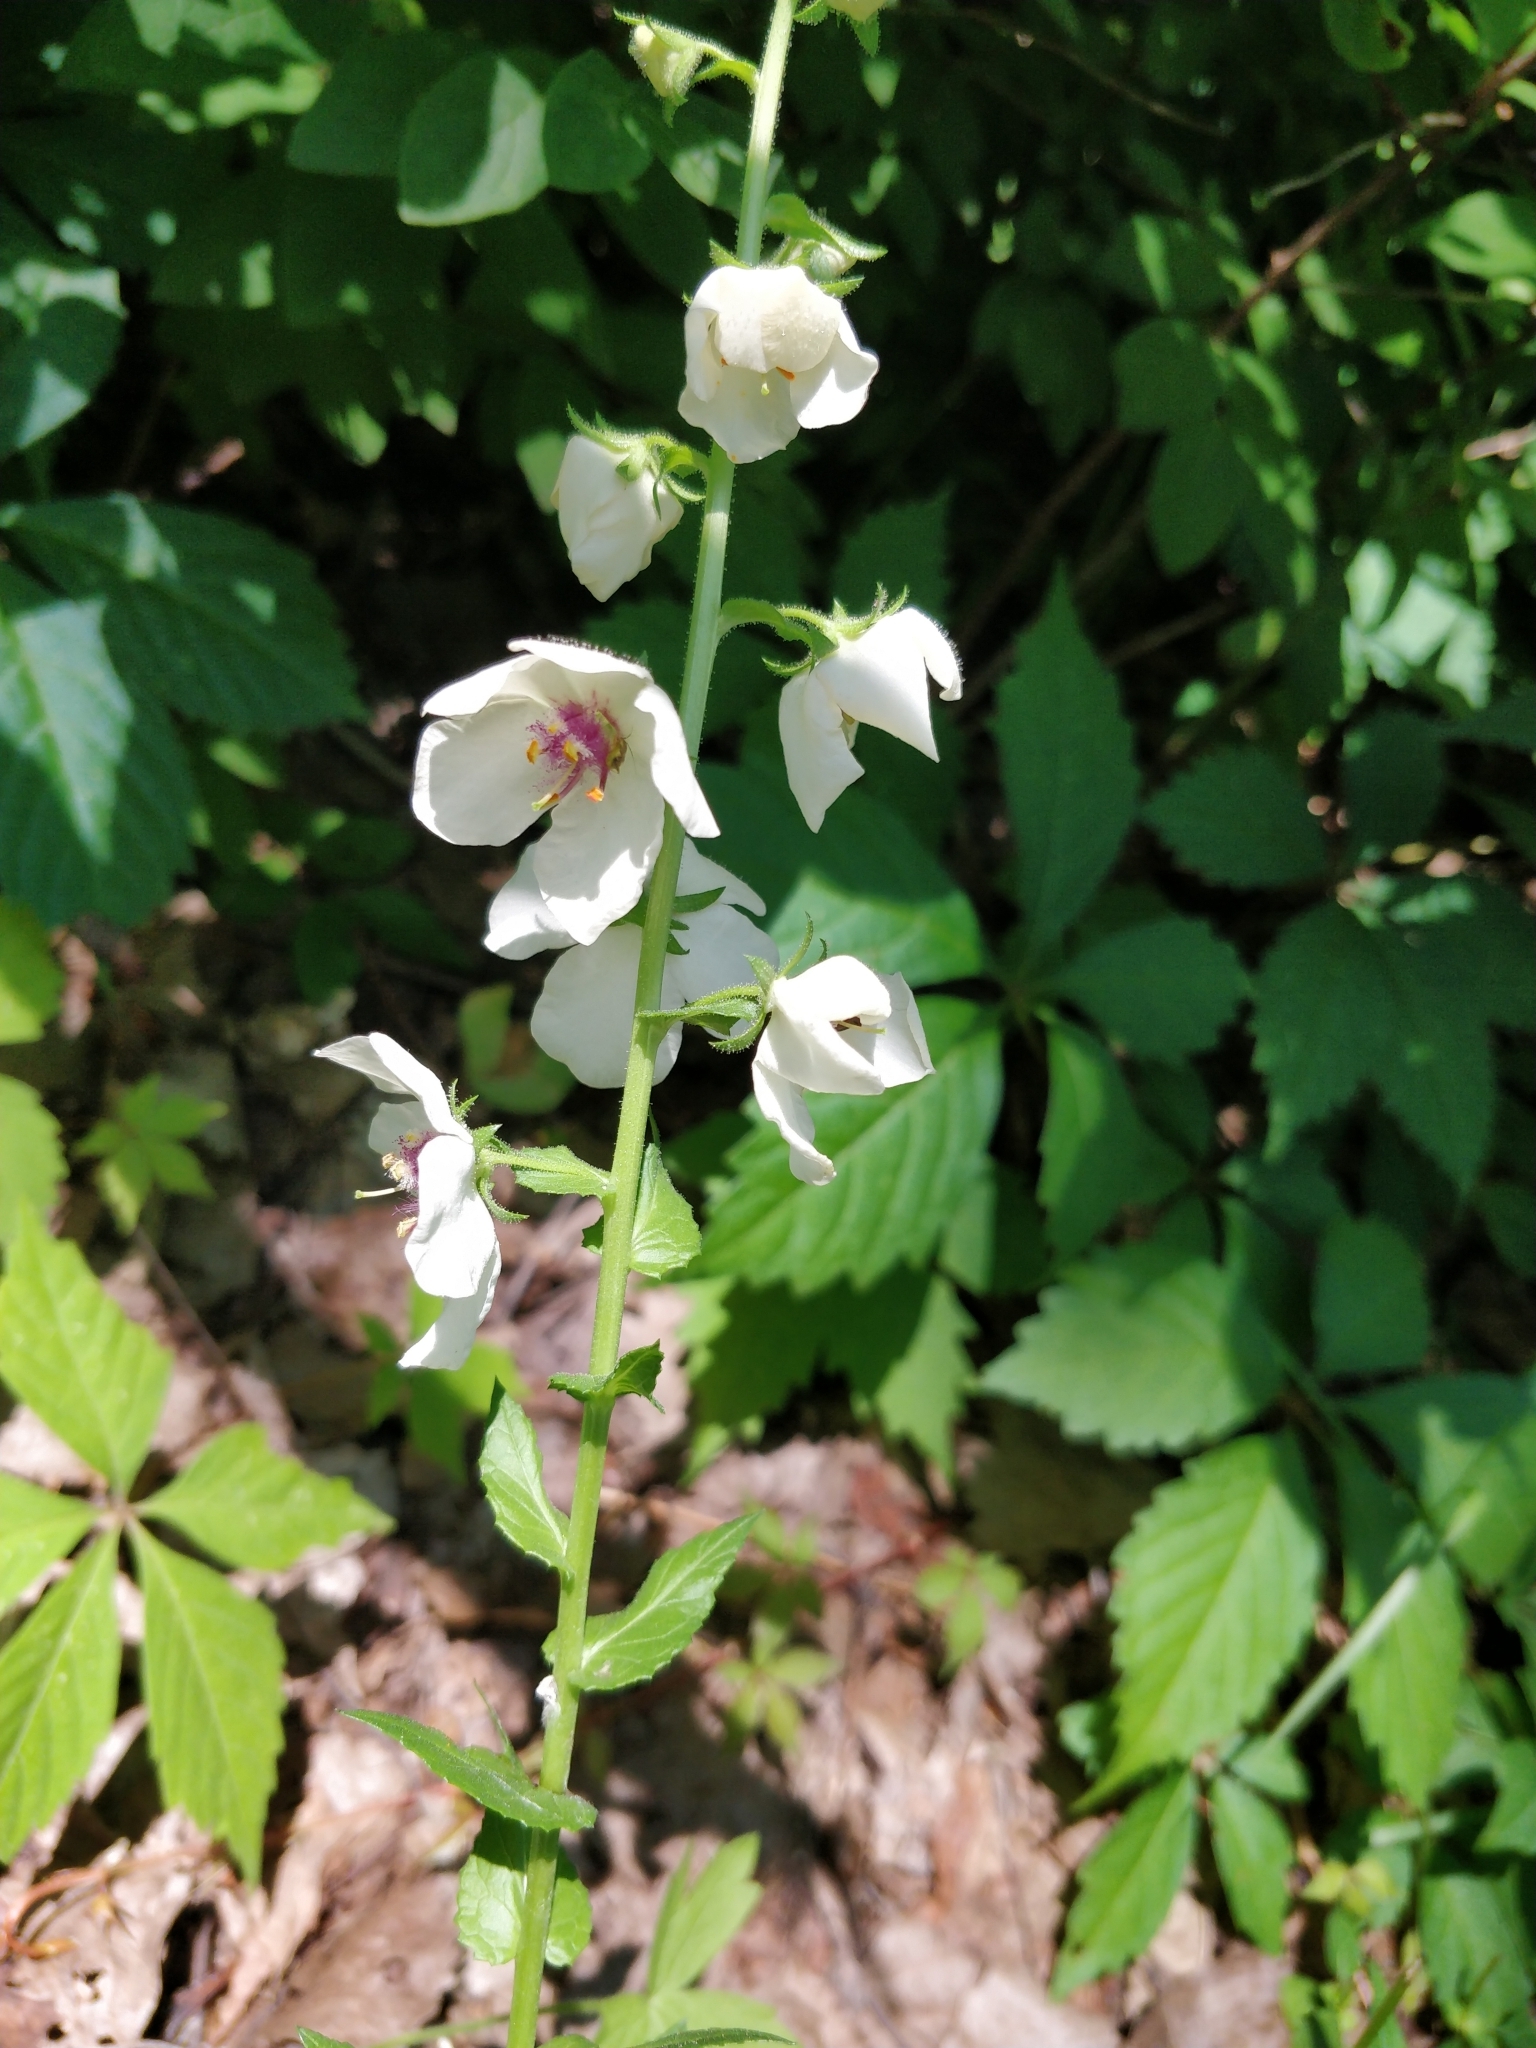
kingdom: Plantae
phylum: Tracheophyta
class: Magnoliopsida
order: Lamiales
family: Scrophulariaceae
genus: Verbascum
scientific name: Verbascum blattaria
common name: Moth mullein
